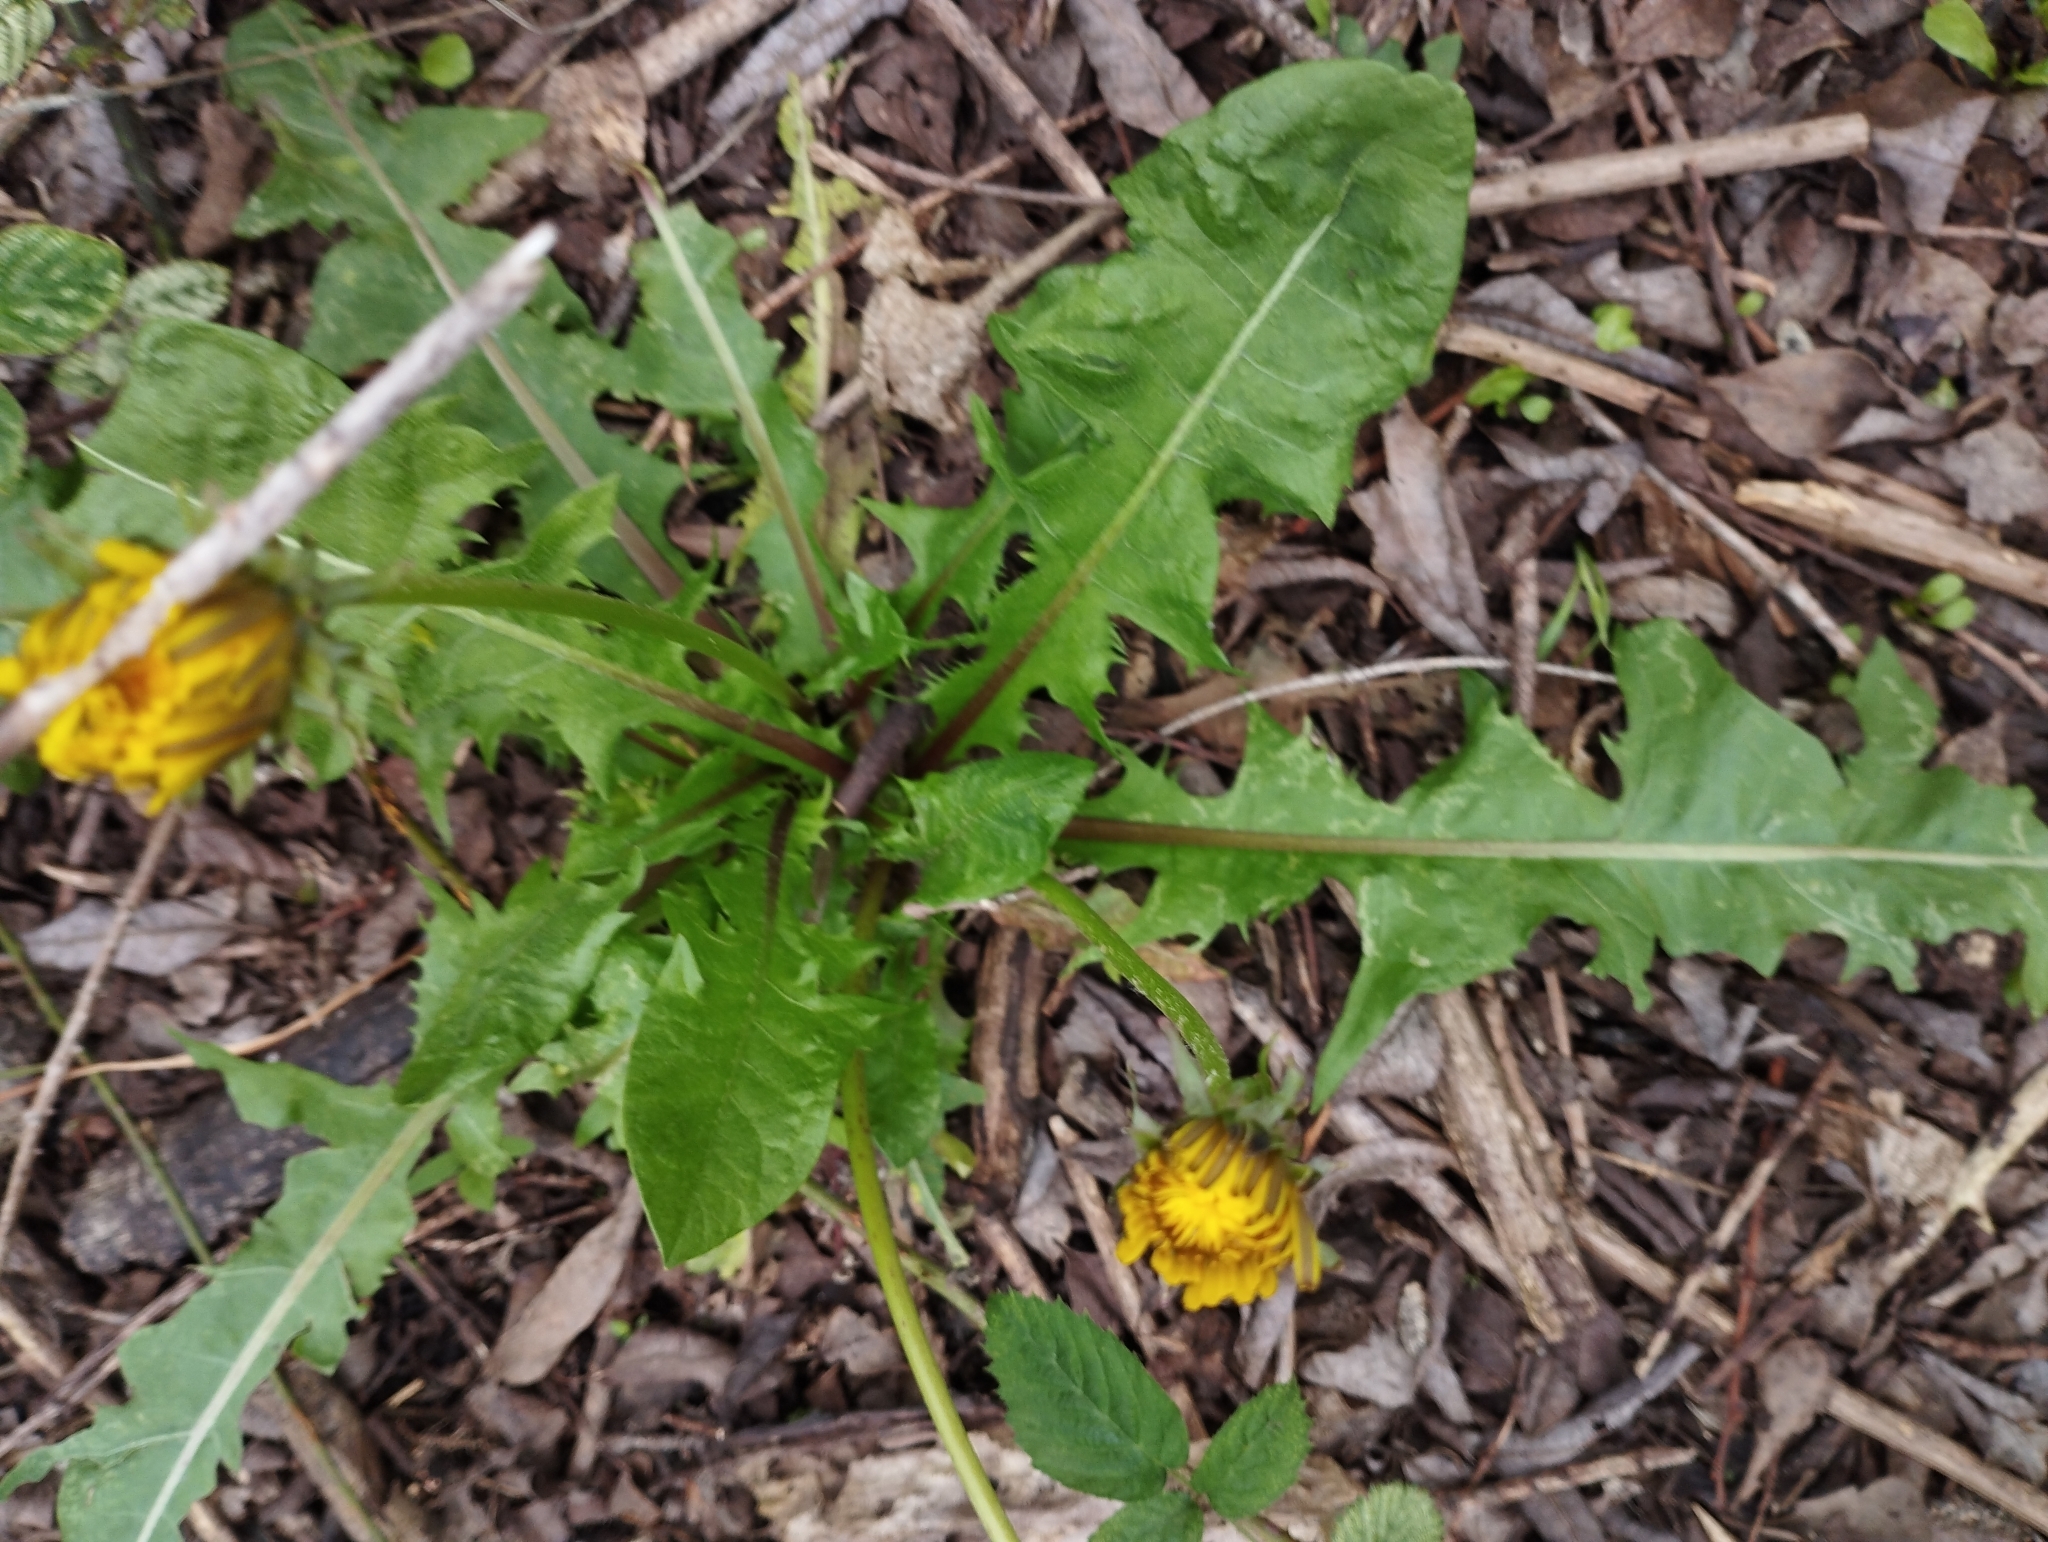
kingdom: Plantae
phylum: Tracheophyta
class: Magnoliopsida
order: Asterales
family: Asteraceae
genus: Taraxacum
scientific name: Taraxacum officinale
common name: Common dandelion
